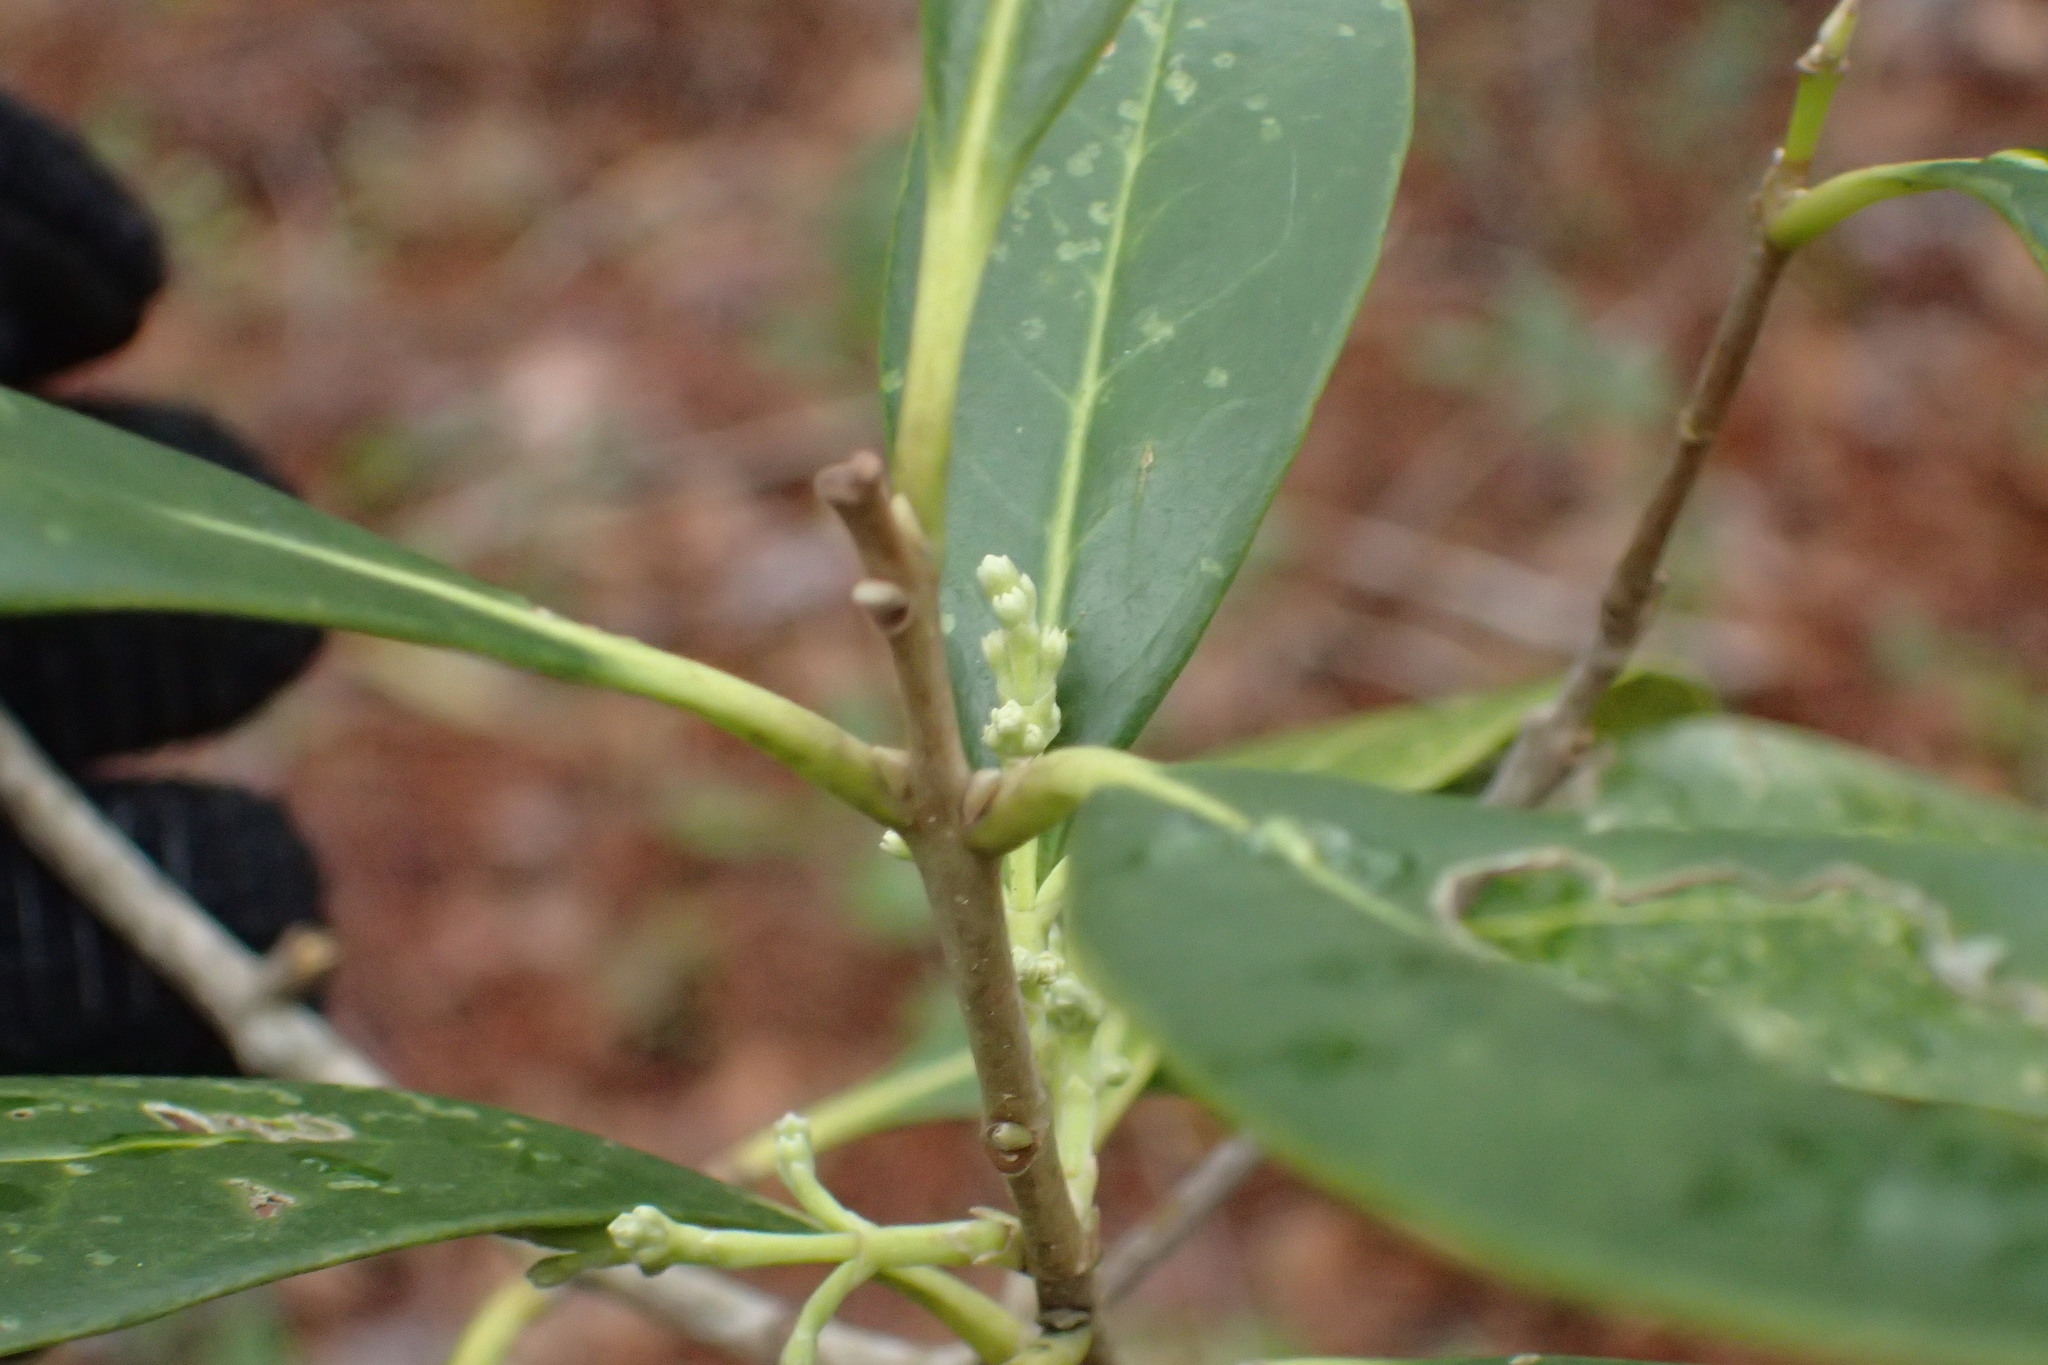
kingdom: Plantae
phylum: Tracheophyta
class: Magnoliopsida
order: Lamiales
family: Oleaceae
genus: Cartrema
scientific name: Cartrema americana
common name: Devilwood
